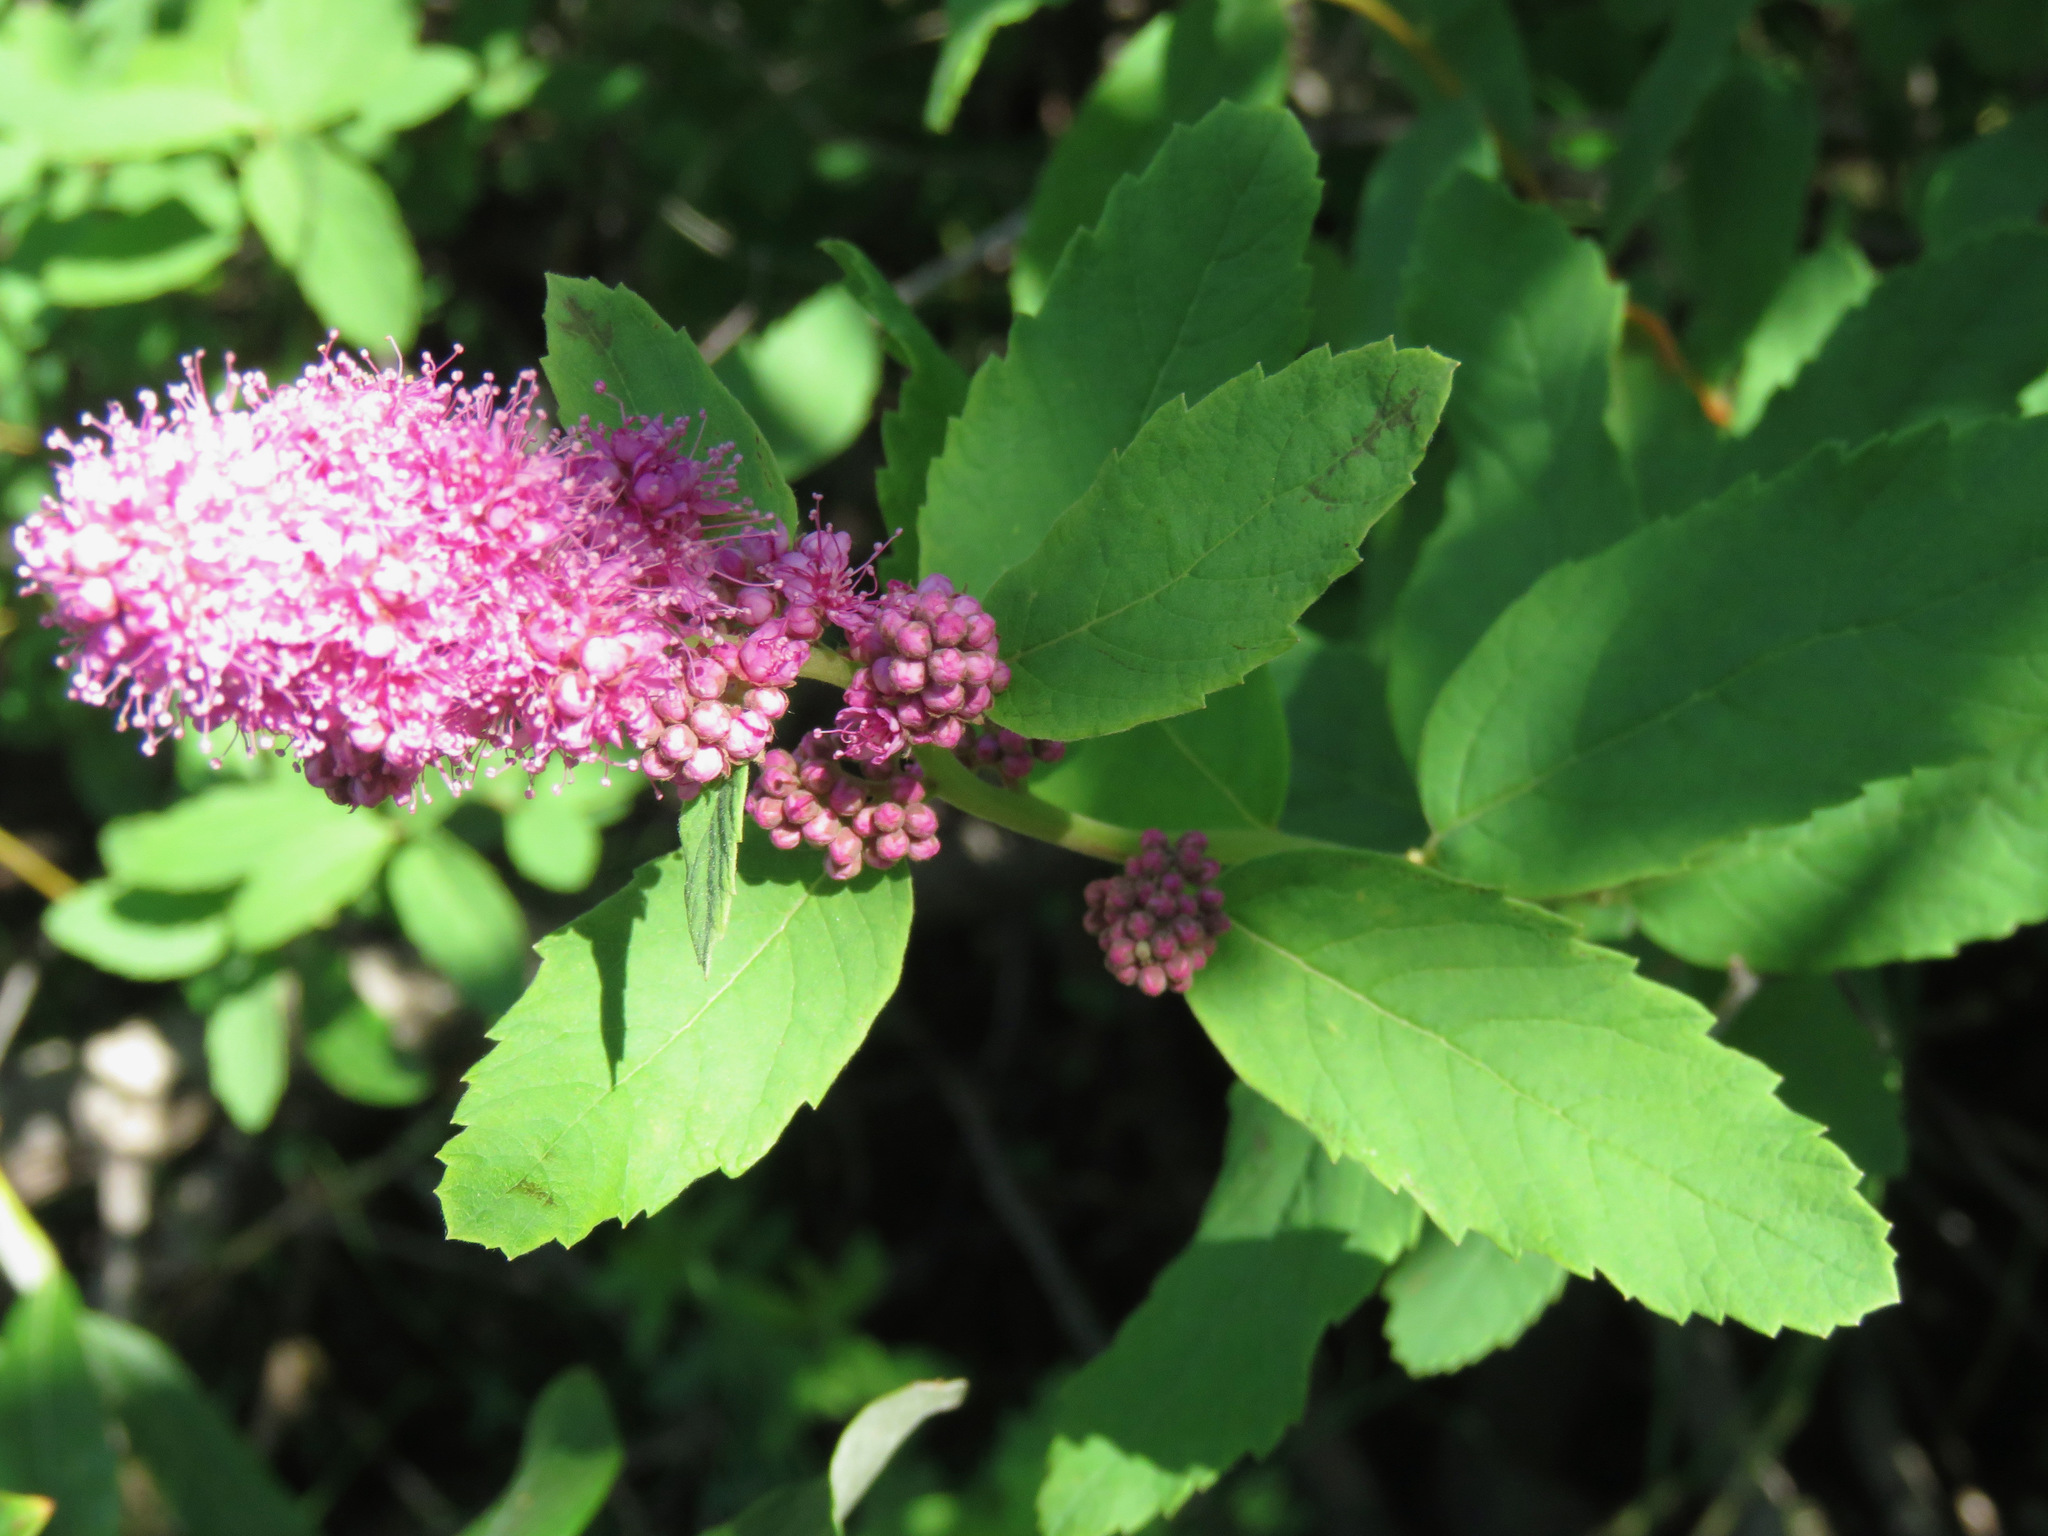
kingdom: Plantae
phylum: Tracheophyta
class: Magnoliopsida
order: Rosales
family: Rosaceae
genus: Spiraea
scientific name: Spiraea douglasii
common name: Steeplebush
